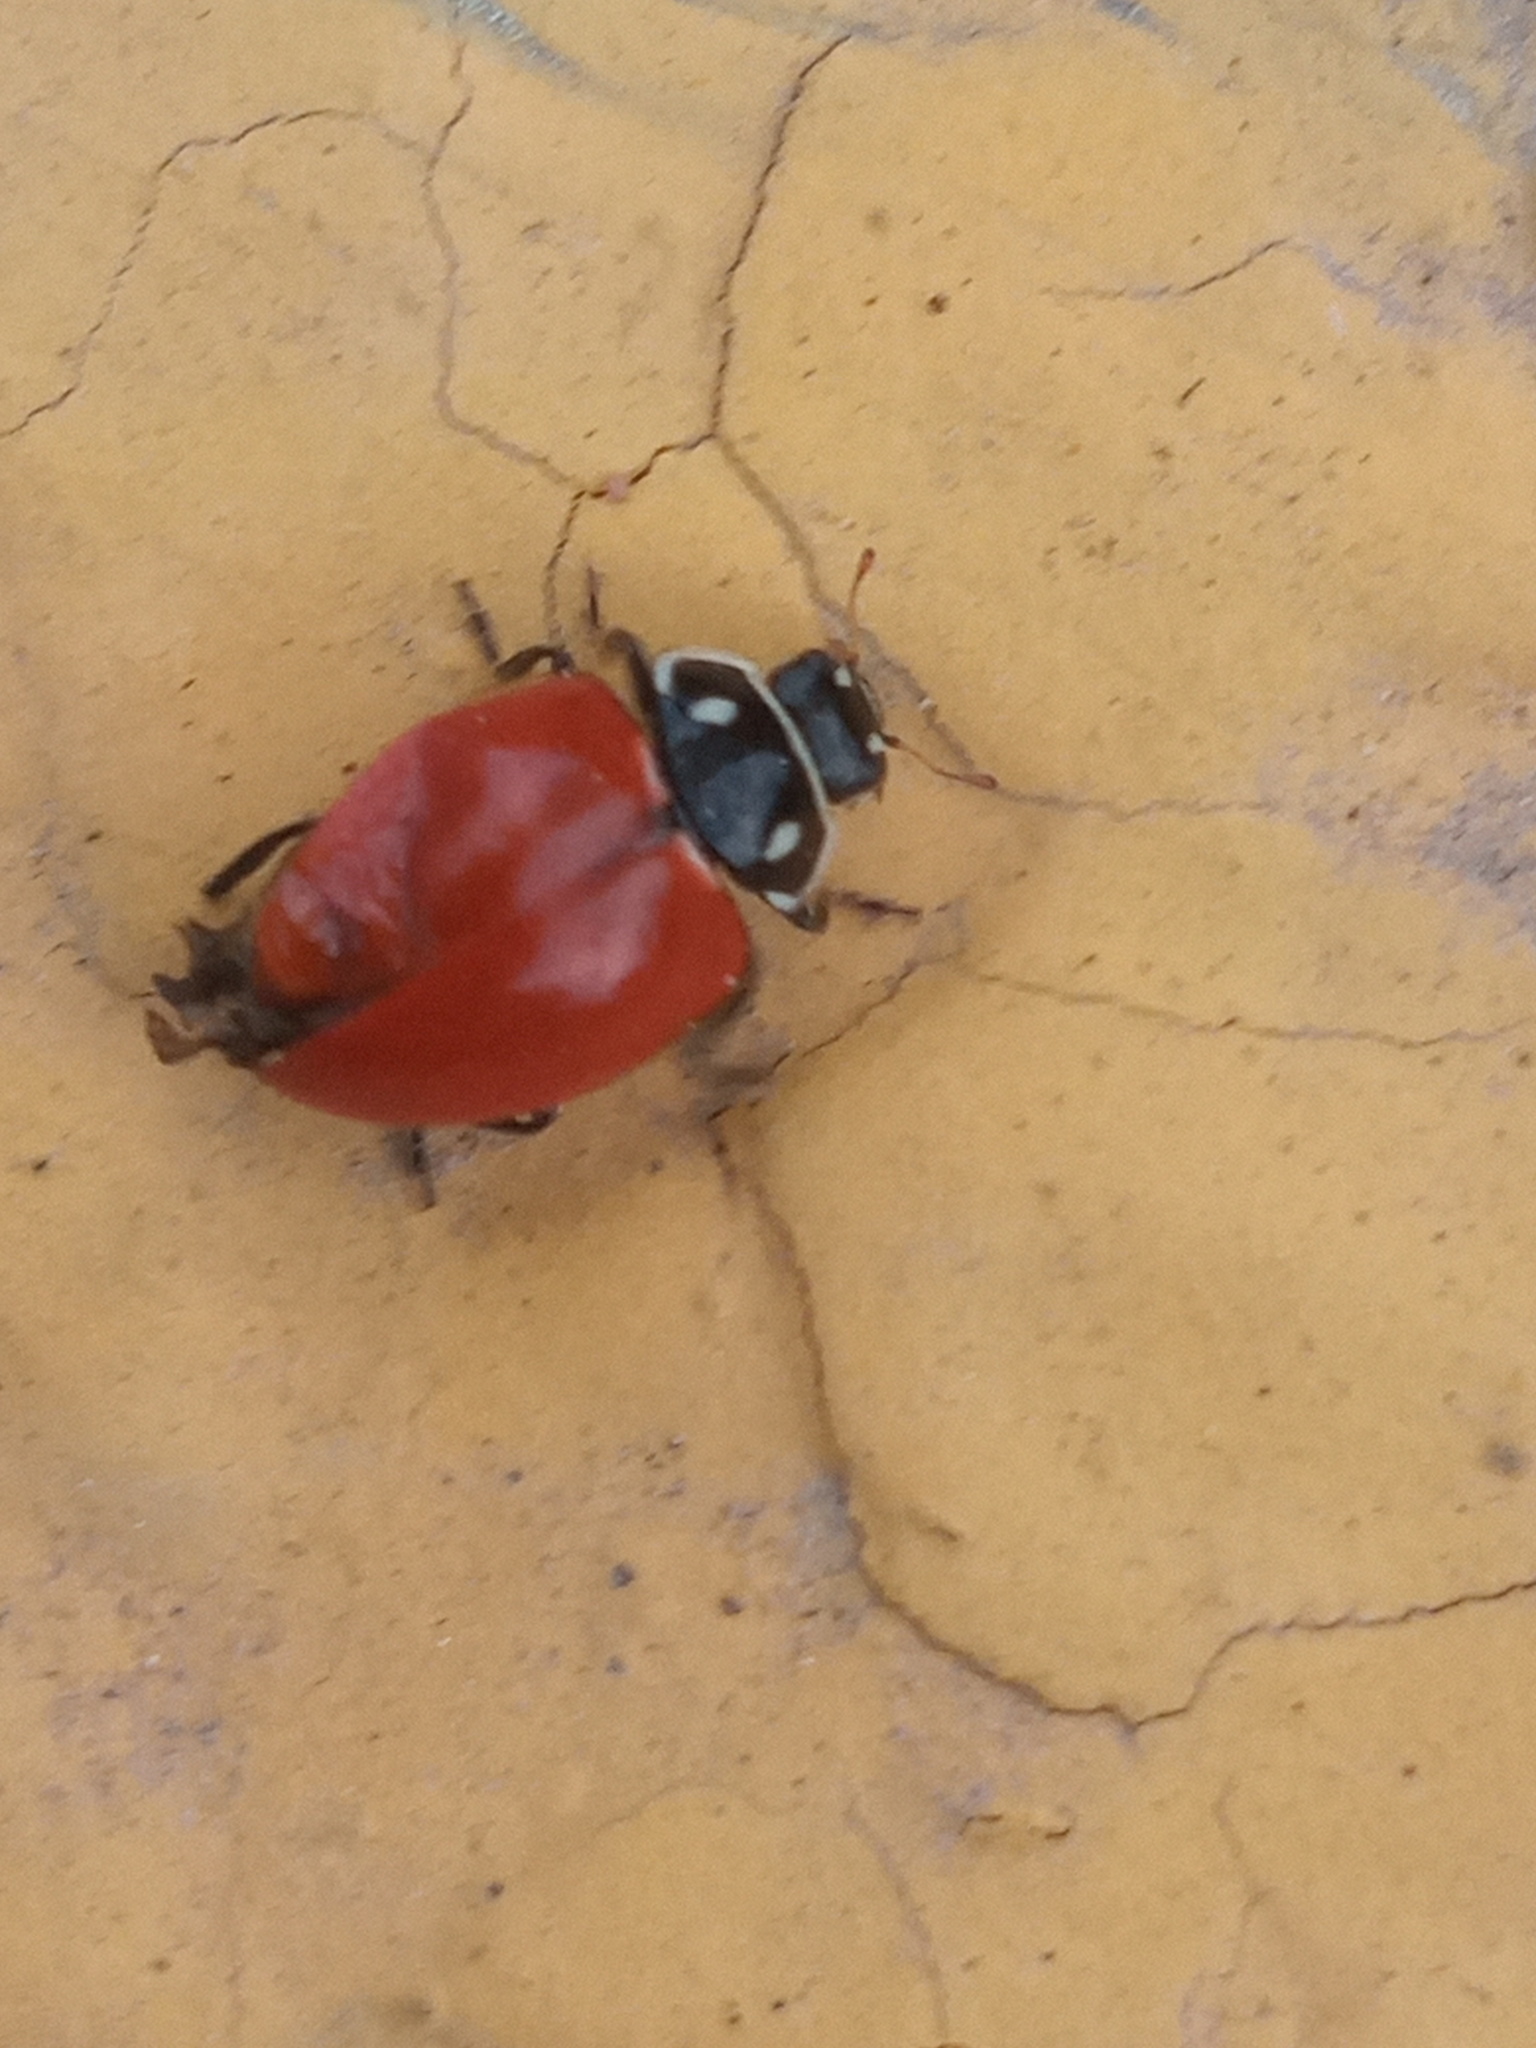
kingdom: Animalia
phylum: Arthropoda
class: Insecta
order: Coleoptera
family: Coccinellidae
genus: Cycloneda
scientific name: Cycloneda emarginata
